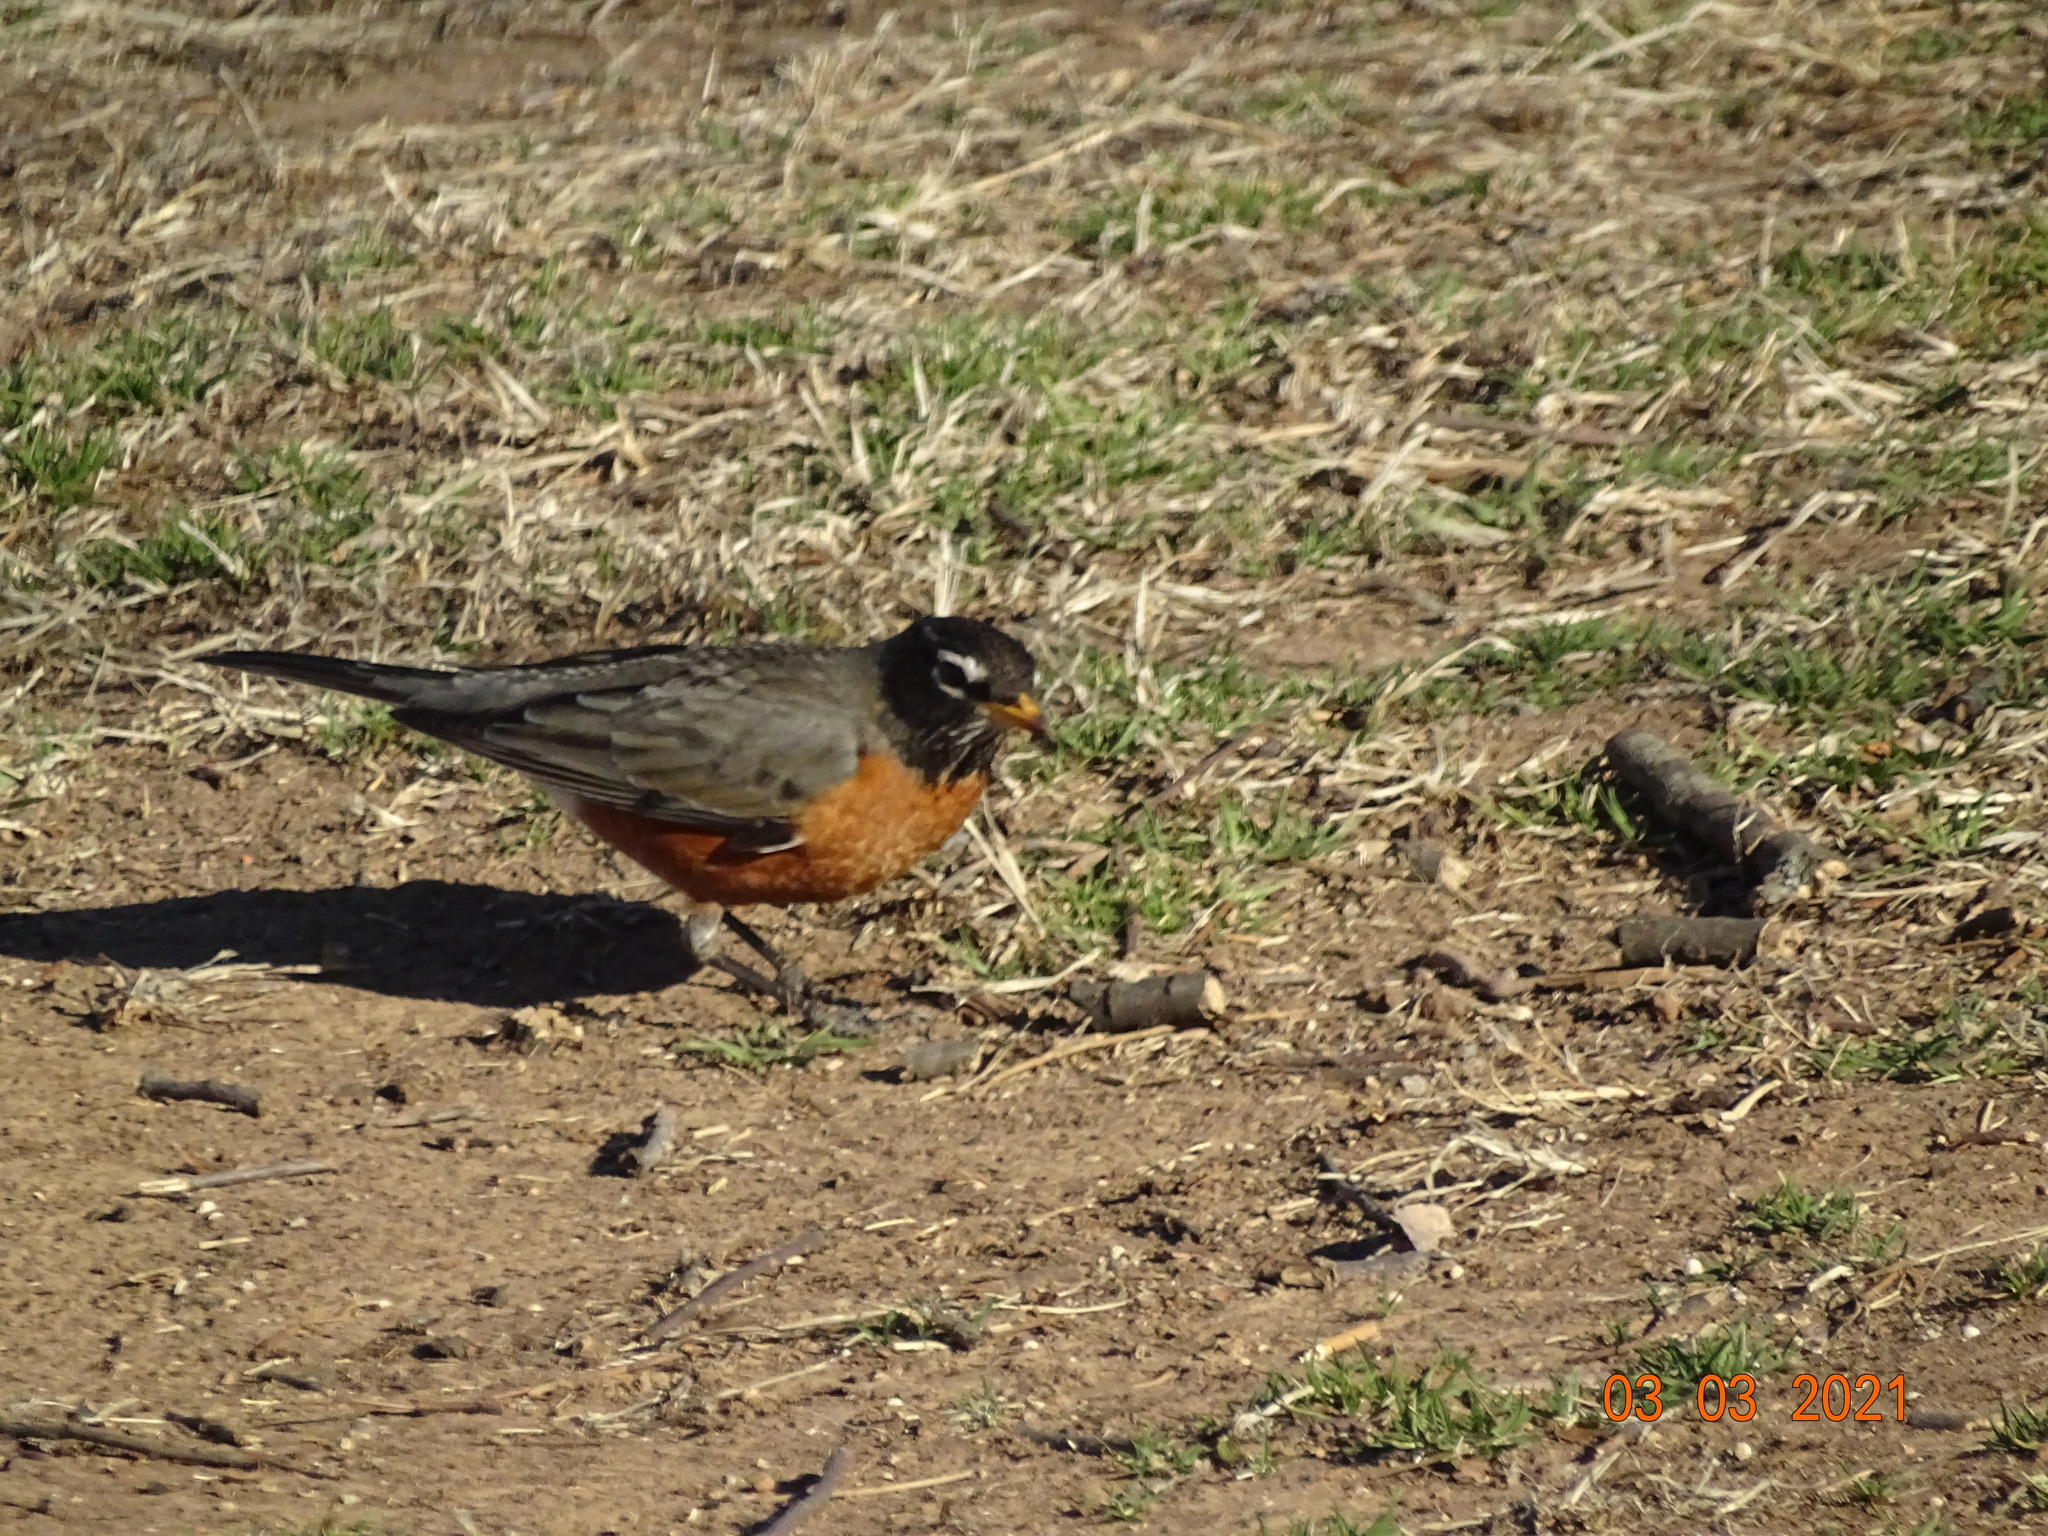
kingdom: Animalia
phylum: Chordata
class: Aves
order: Passeriformes
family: Turdidae
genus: Turdus
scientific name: Turdus migratorius
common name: American robin
